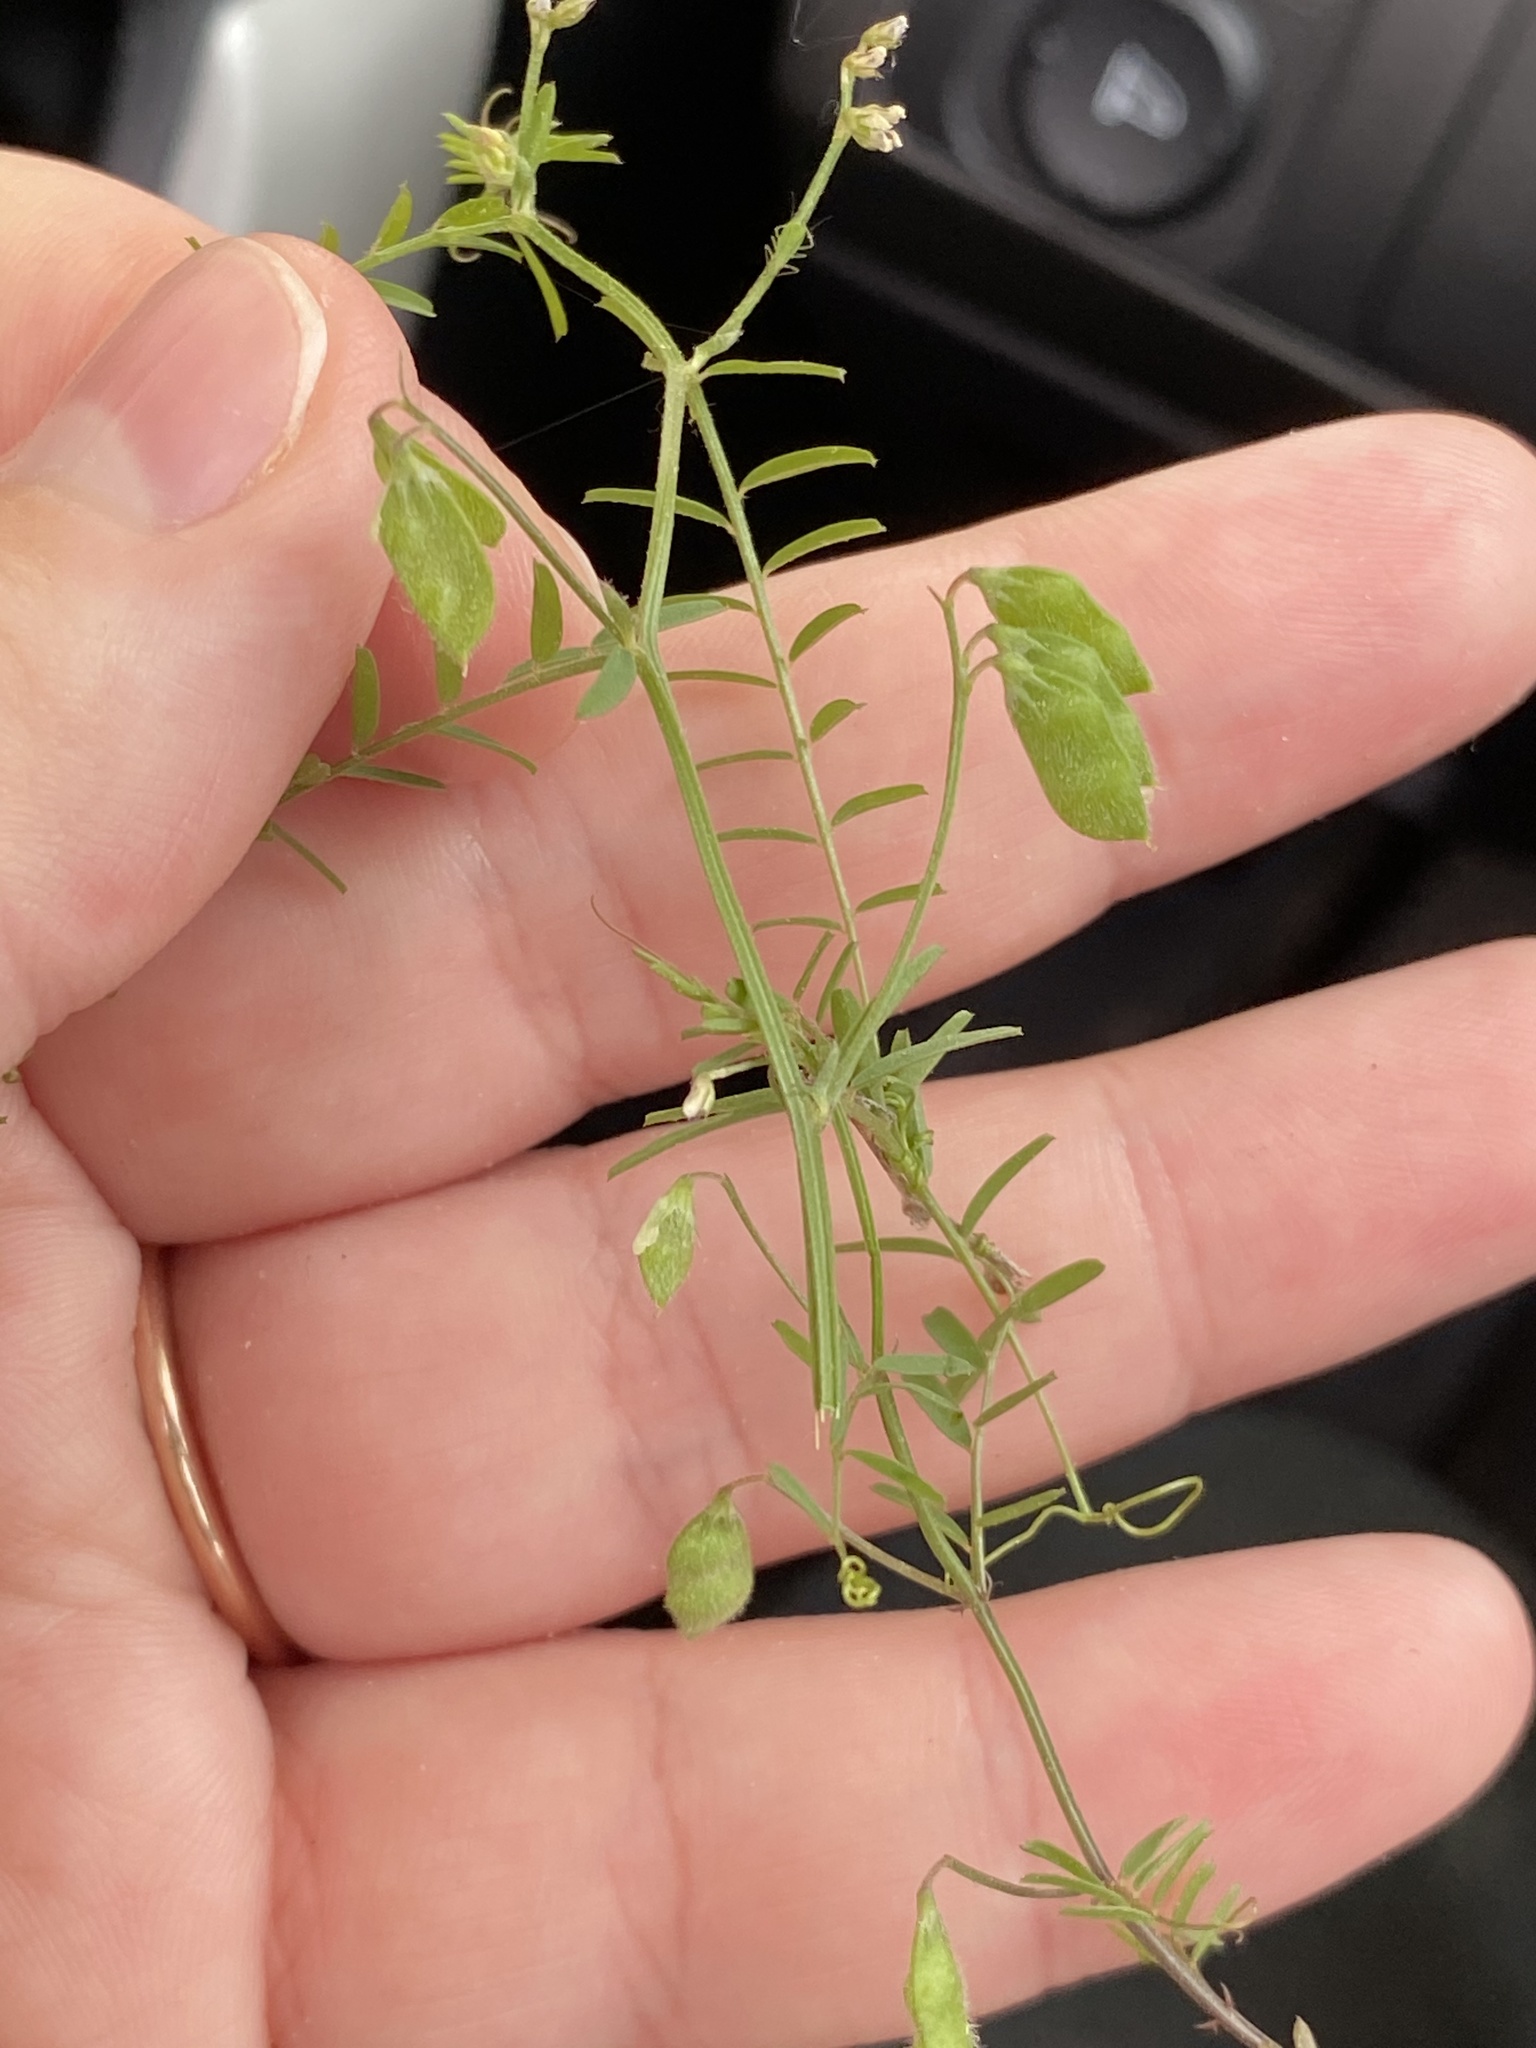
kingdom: Plantae
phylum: Tracheophyta
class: Magnoliopsida
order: Fabales
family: Fabaceae
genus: Vicia
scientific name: Vicia hirsuta
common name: Tiny vetch
